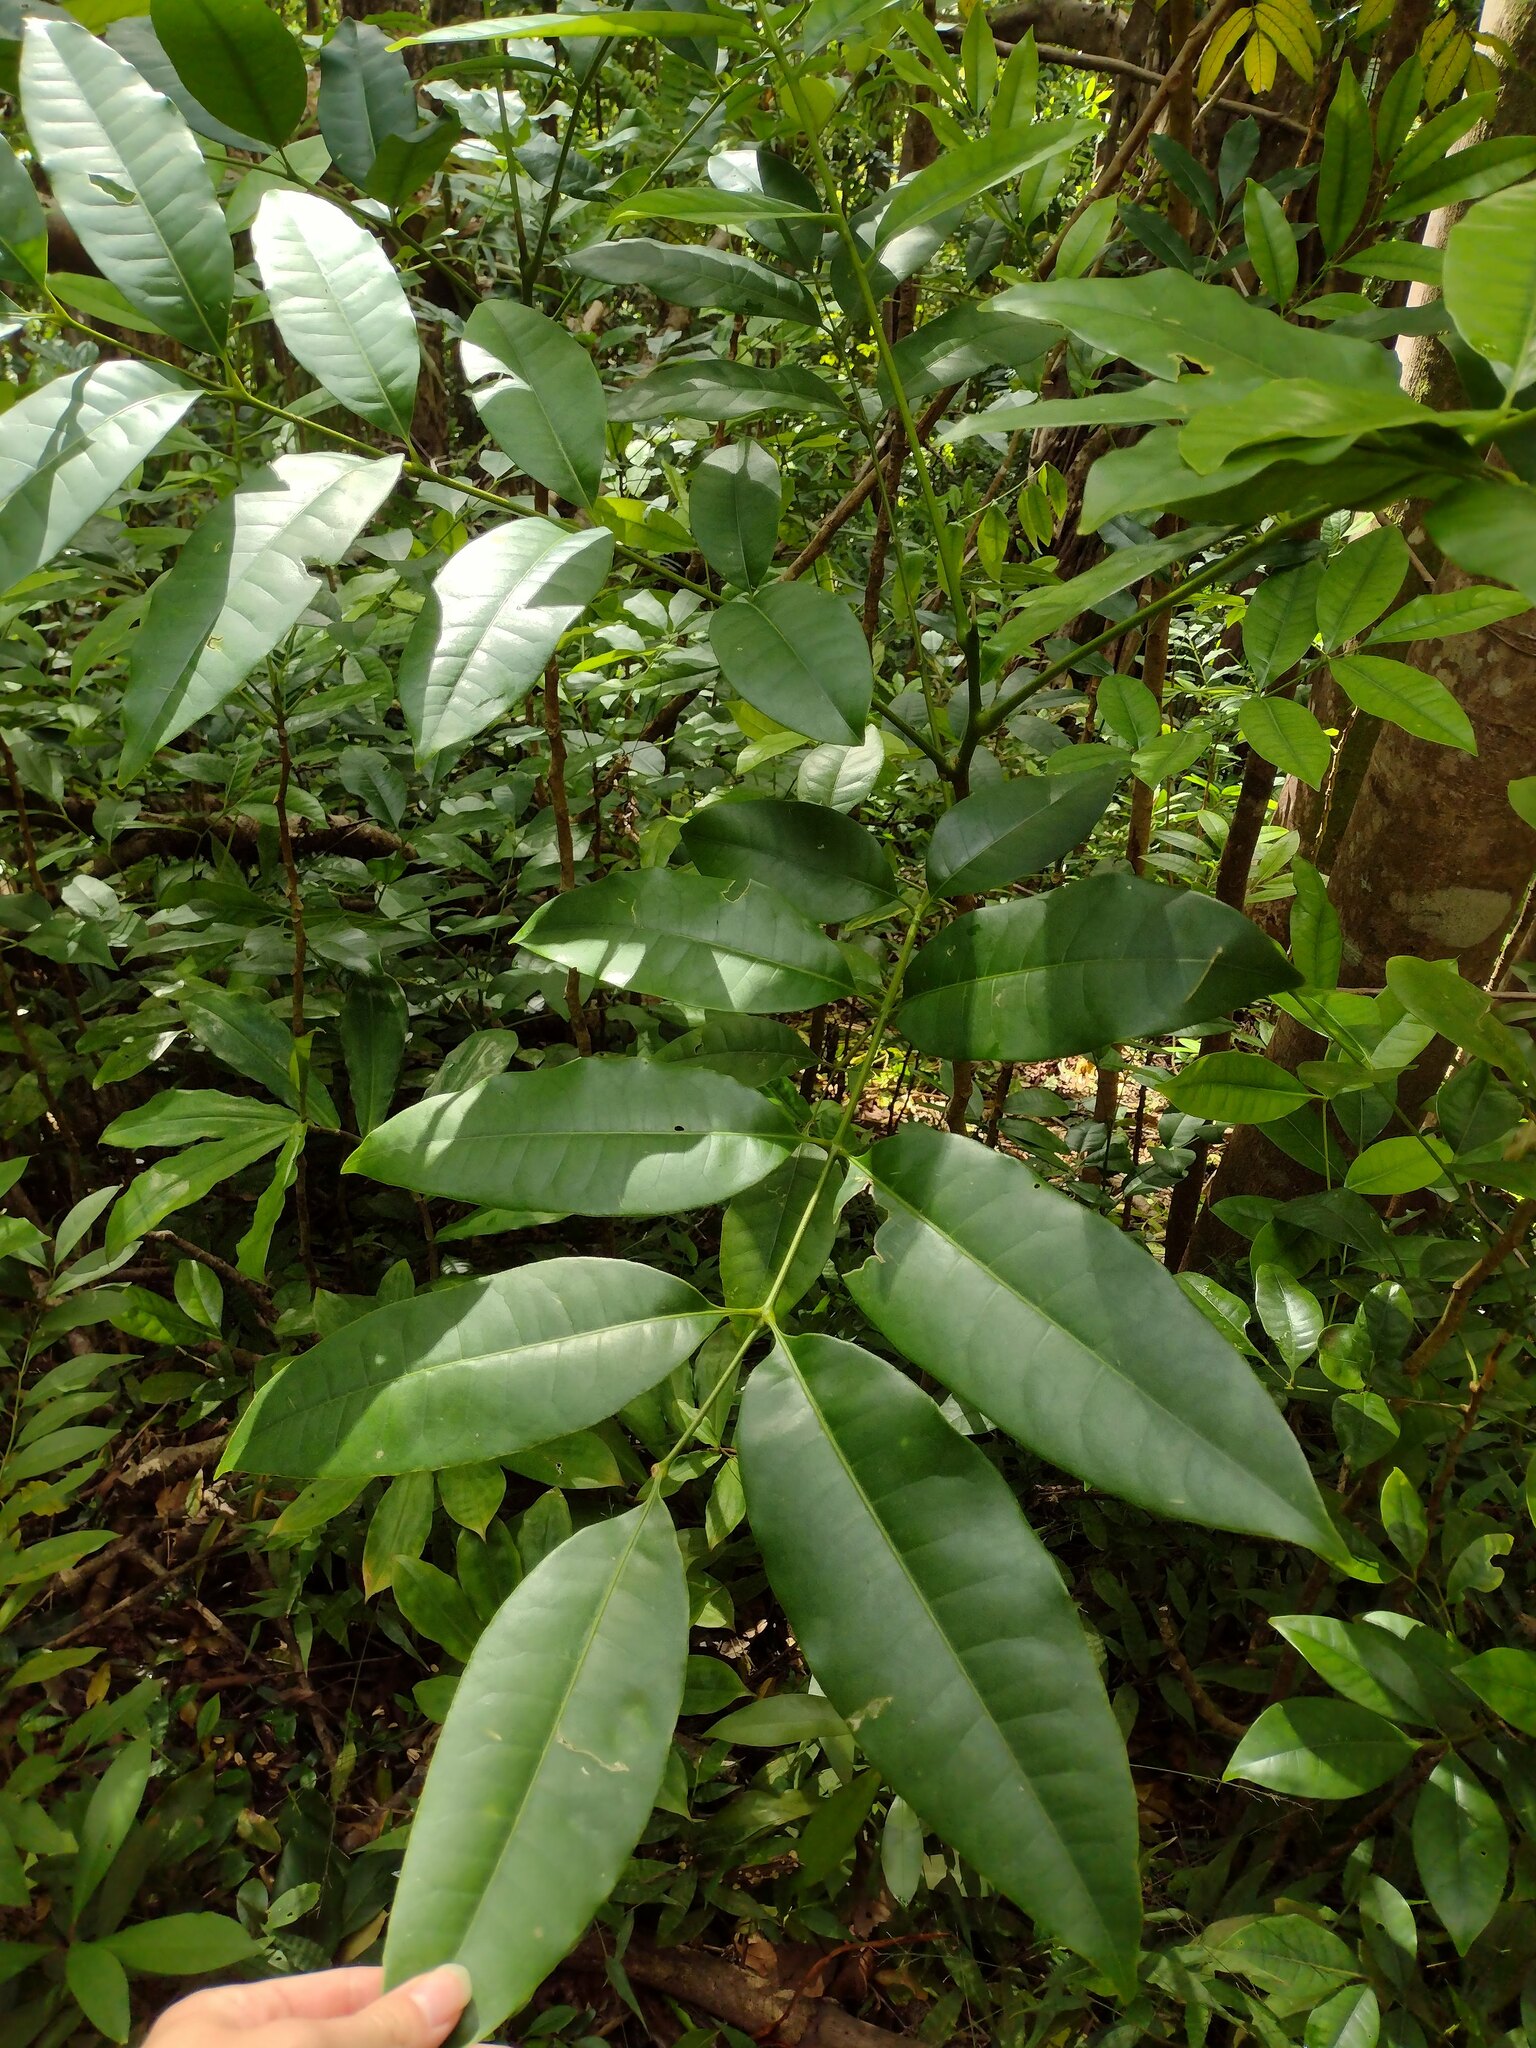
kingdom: Plantae
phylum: Tracheophyta
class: Magnoliopsida
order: Sapindales
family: Rutaceae
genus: Flindersia
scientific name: Flindersia brayleyana
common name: Queensland maple
